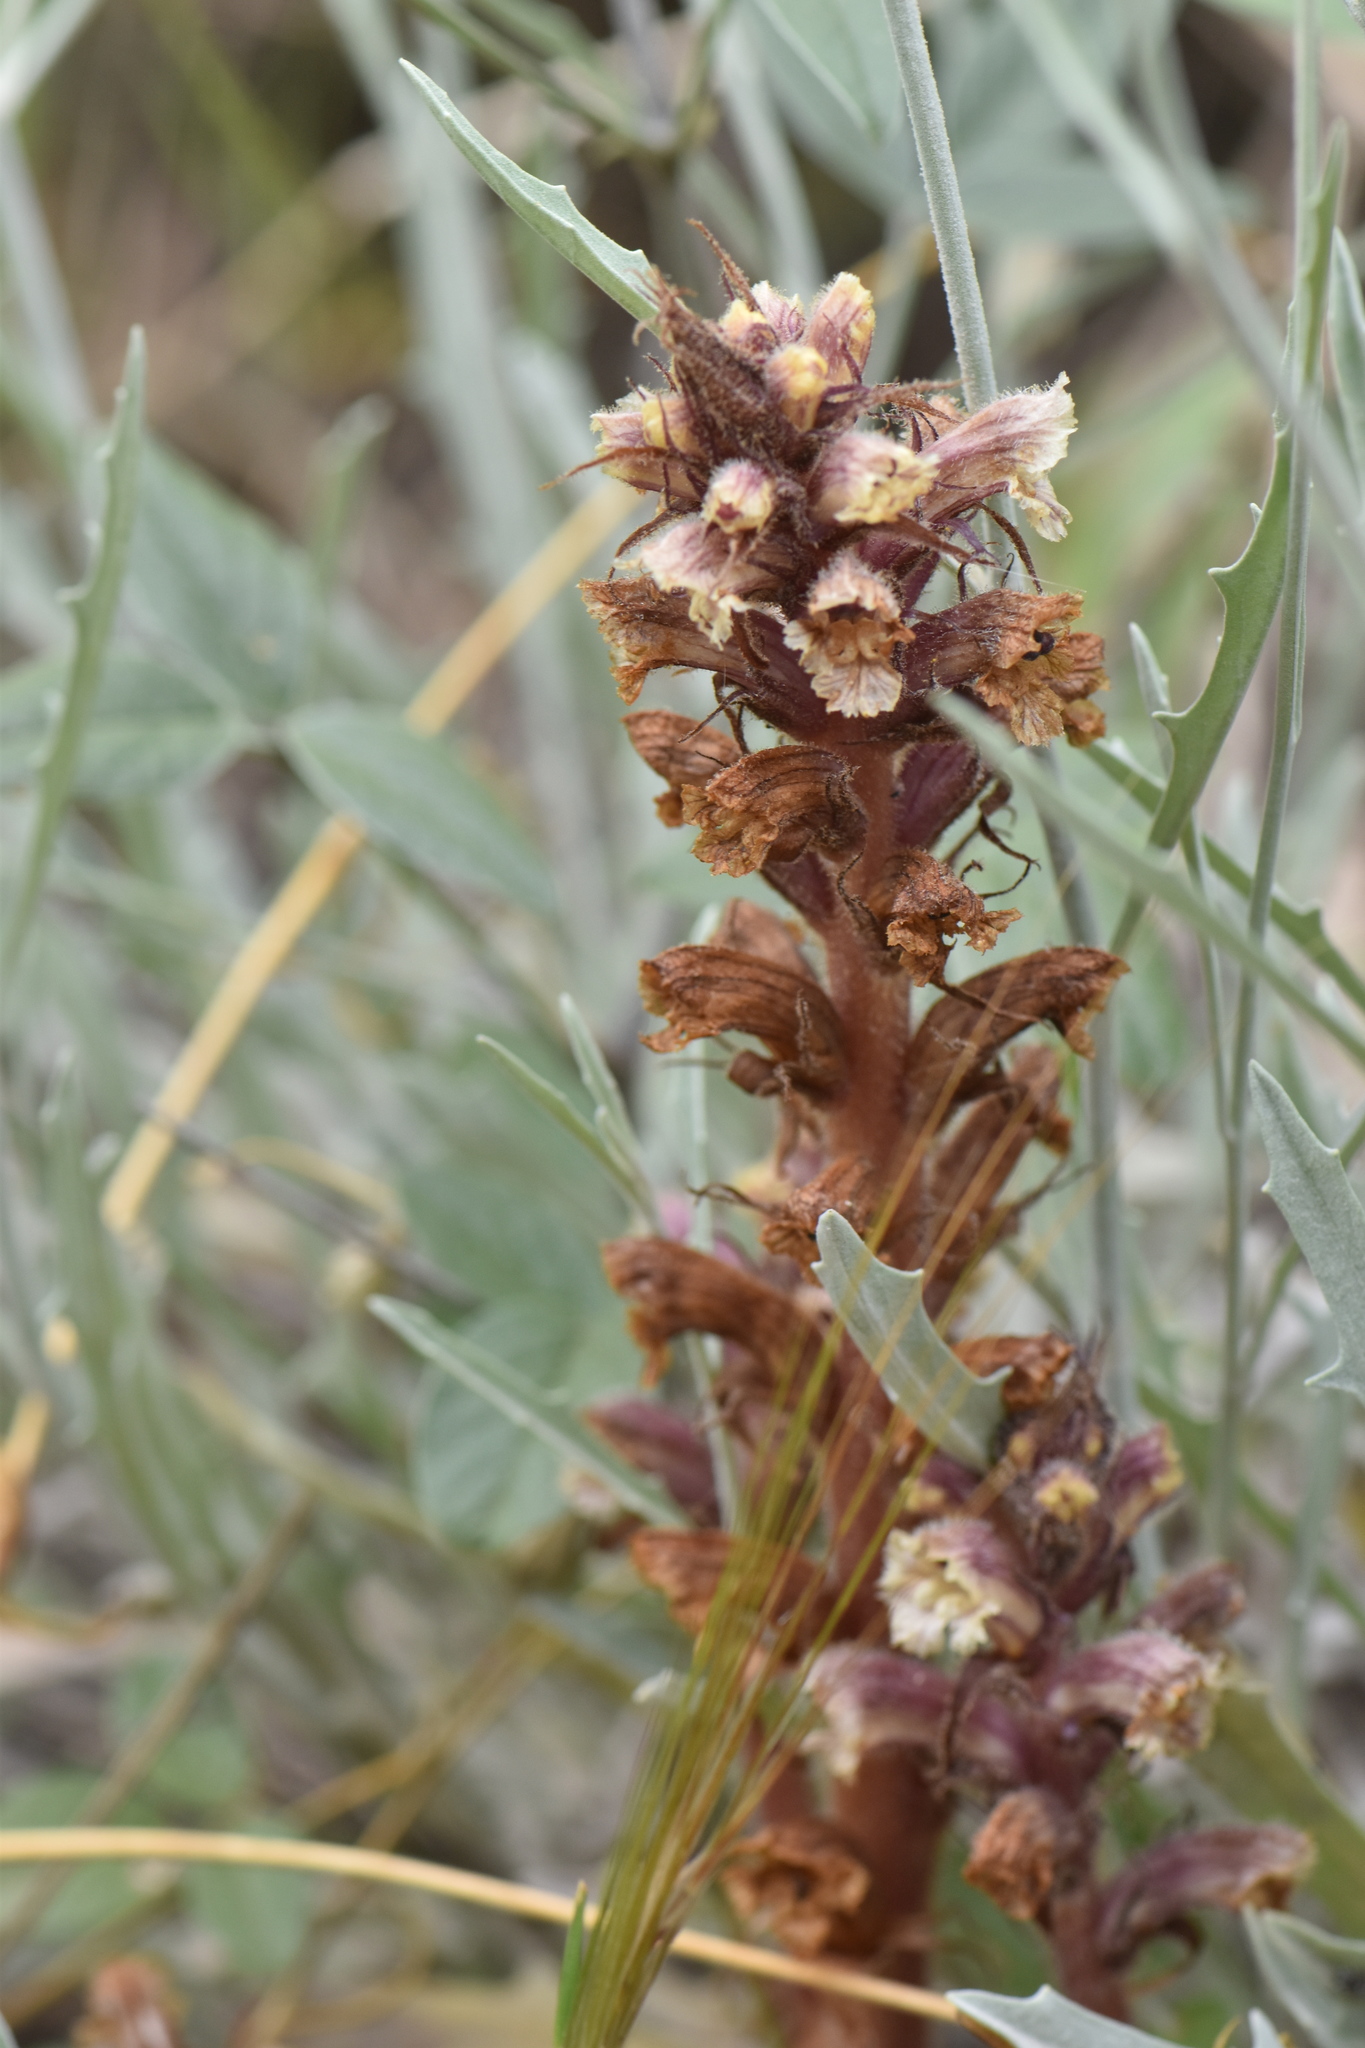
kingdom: Plantae
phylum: Tracheophyta
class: Magnoliopsida
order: Lamiales
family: Orobanchaceae
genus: Orobanche
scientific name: Orobanche calendulae
